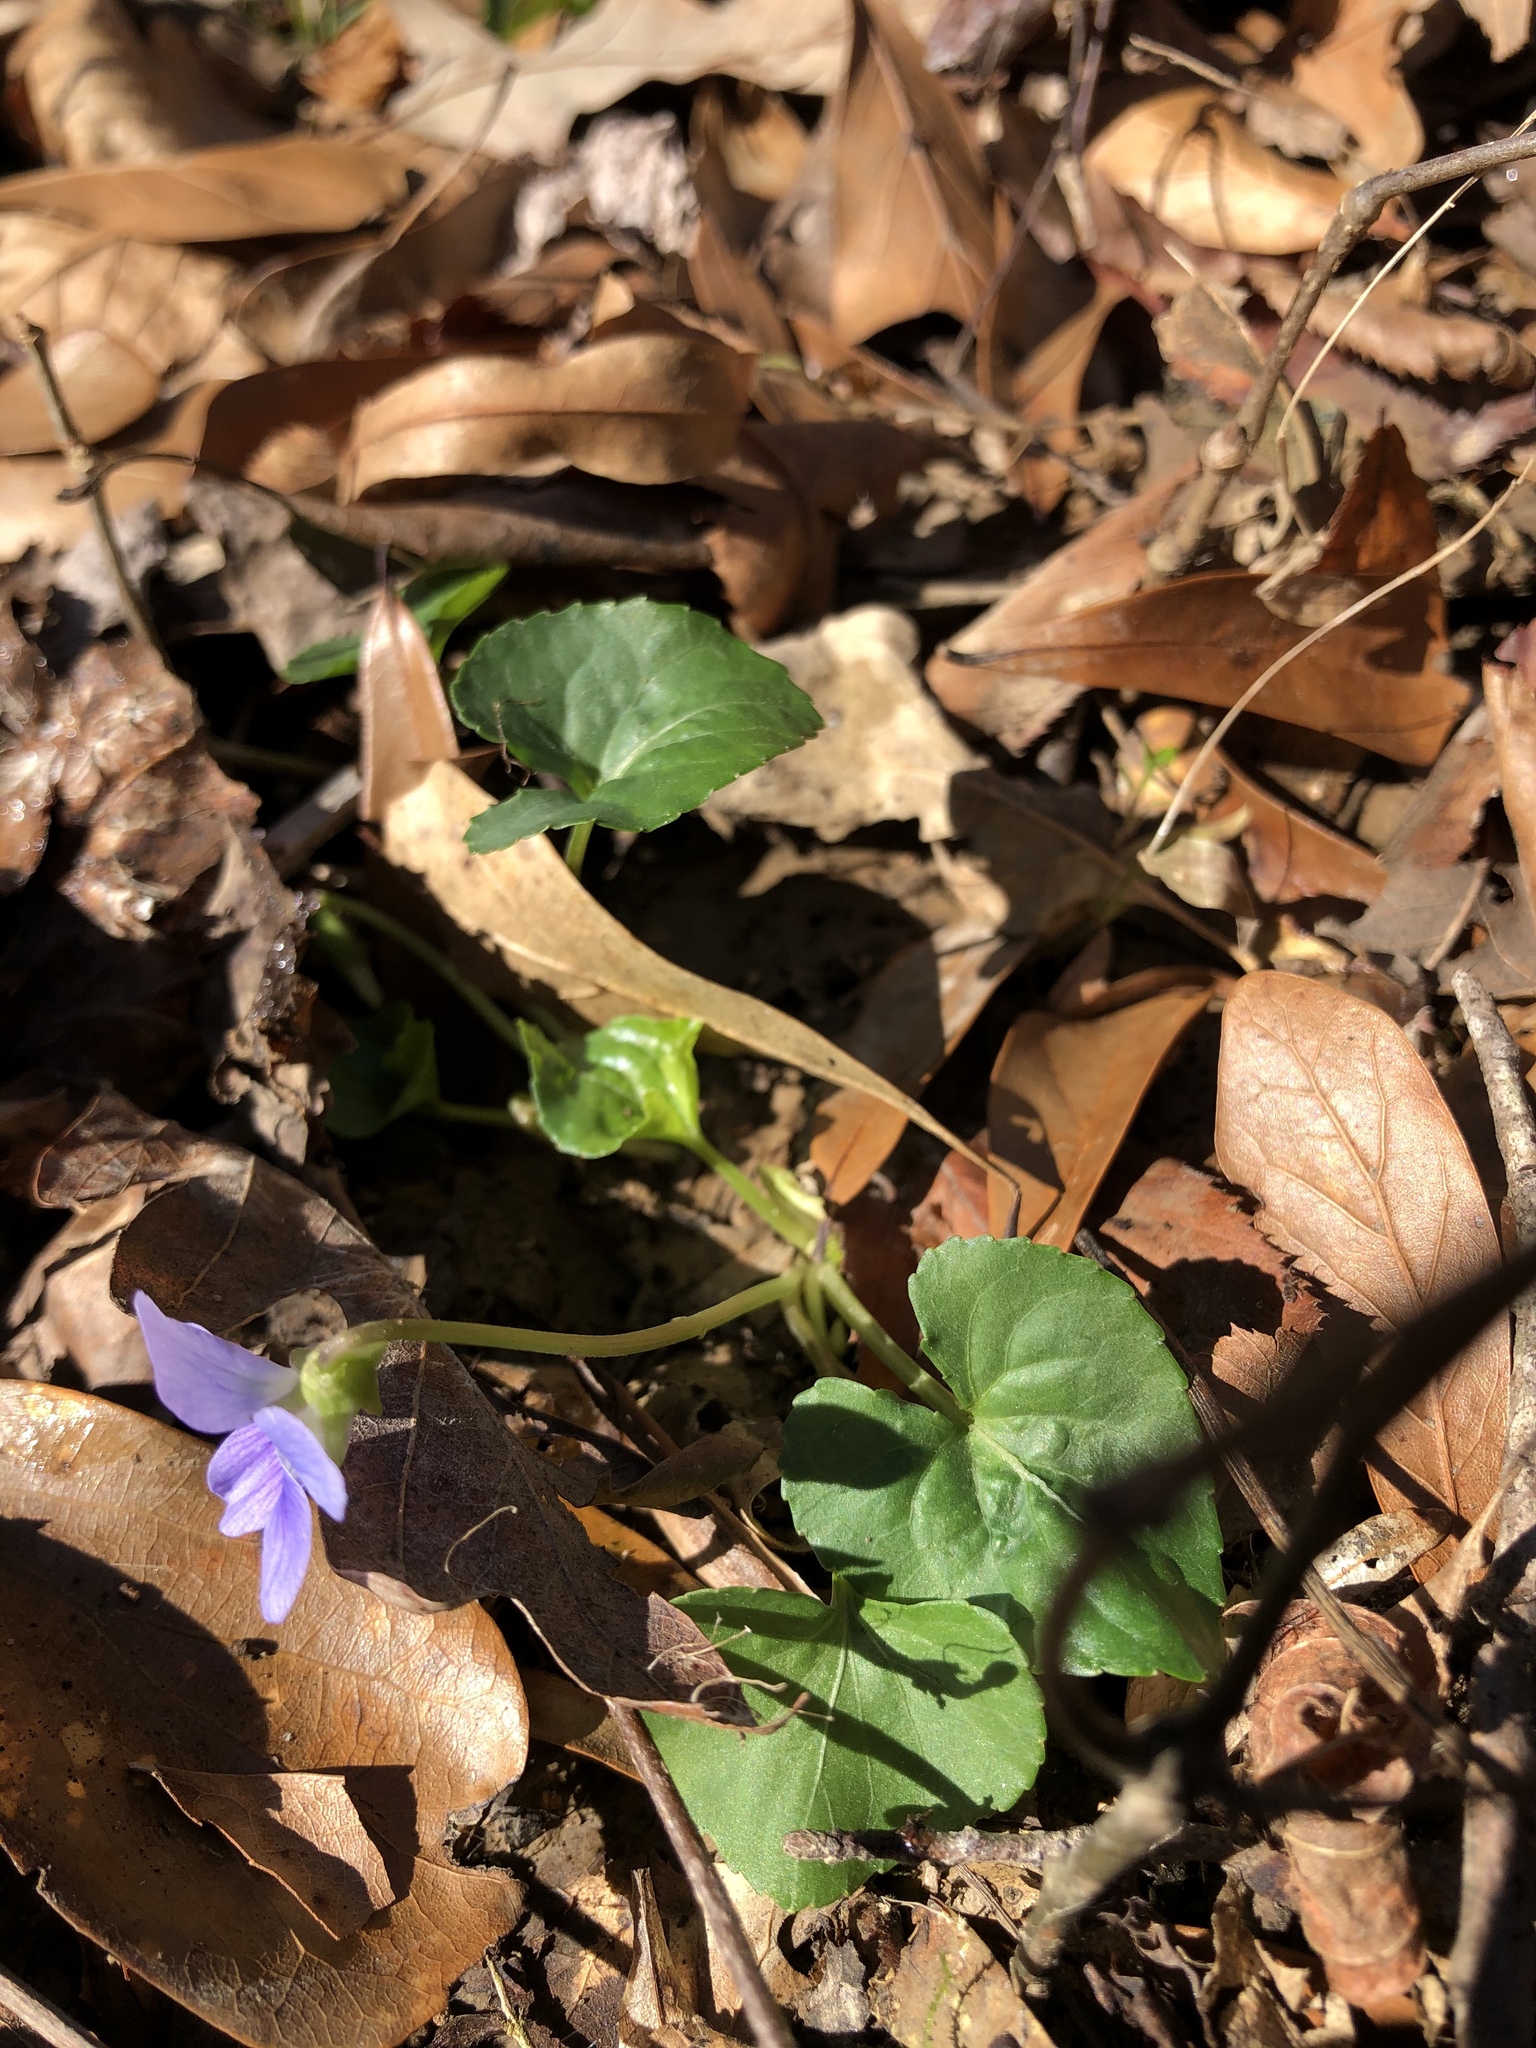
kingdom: Plantae
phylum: Tracheophyta
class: Magnoliopsida
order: Malpighiales
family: Violaceae
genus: Viola
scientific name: Viola sororia
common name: Dooryard violet
